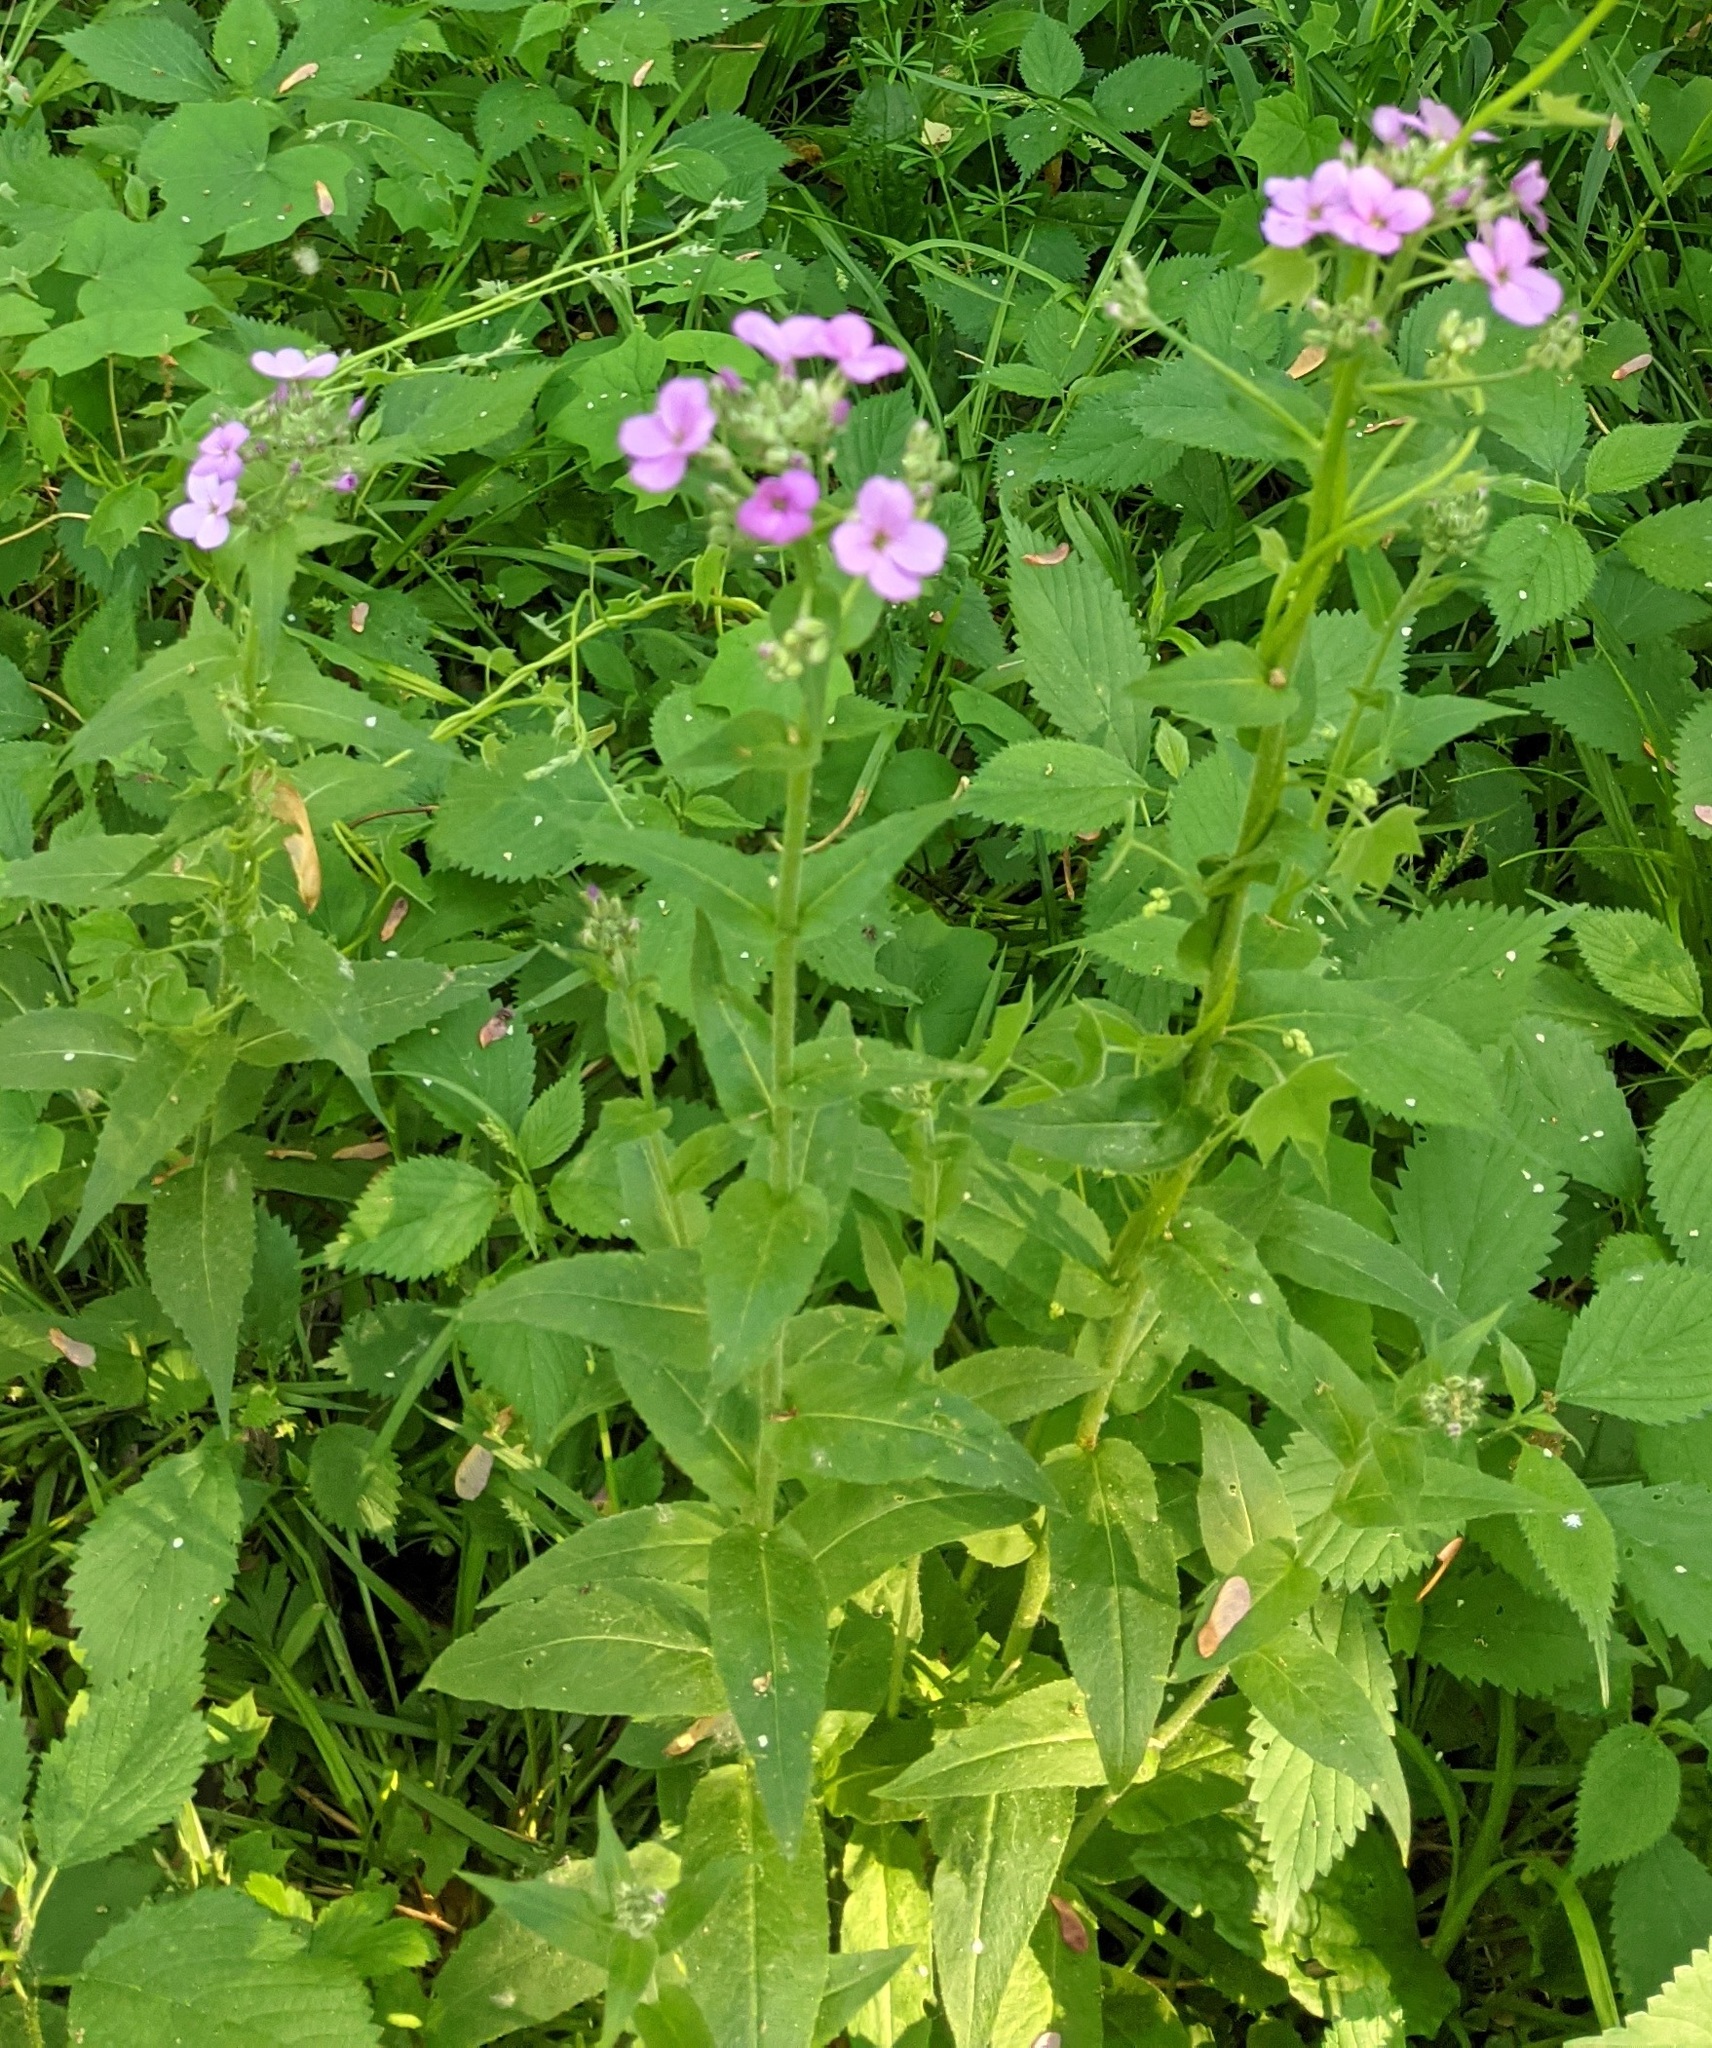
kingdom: Plantae
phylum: Tracheophyta
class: Magnoliopsida
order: Brassicales
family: Brassicaceae
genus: Hesperis
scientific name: Hesperis matronalis
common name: Dame's-violet
